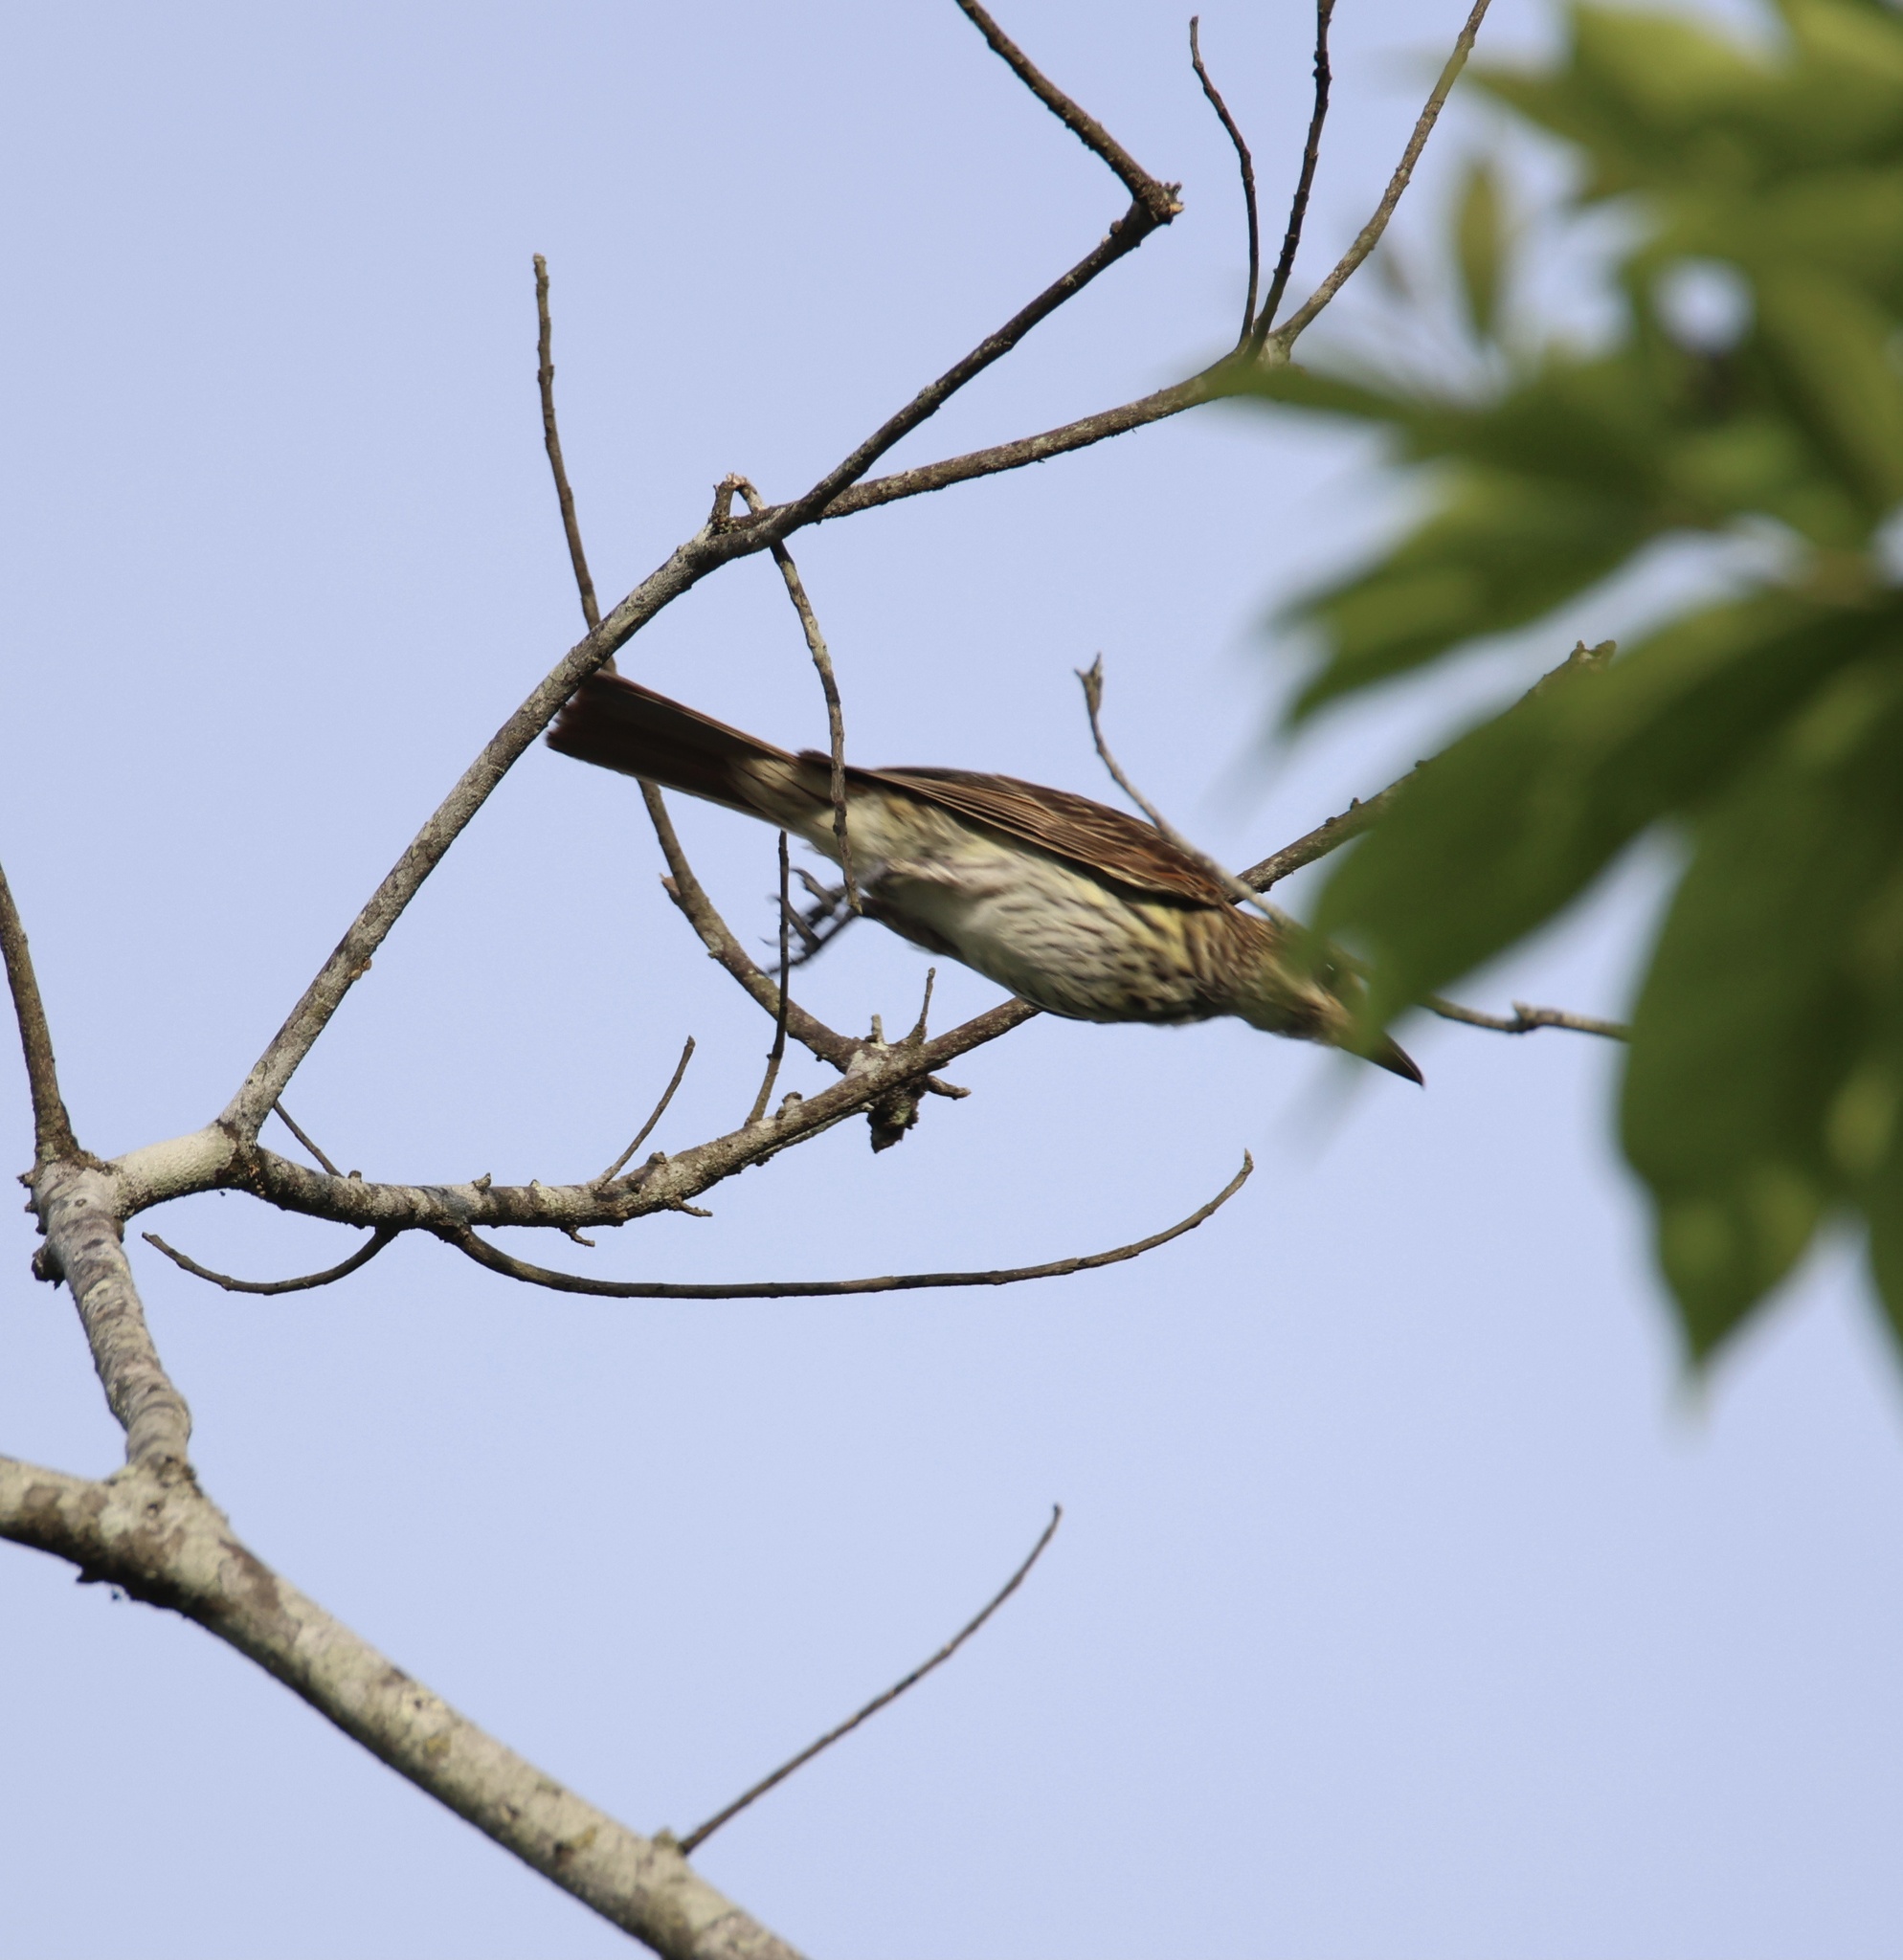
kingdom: Animalia
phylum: Chordata
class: Aves
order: Passeriformes
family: Tyrannidae
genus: Myiodynastes
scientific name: Myiodynastes maculatus
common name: Streaked flycatcher
